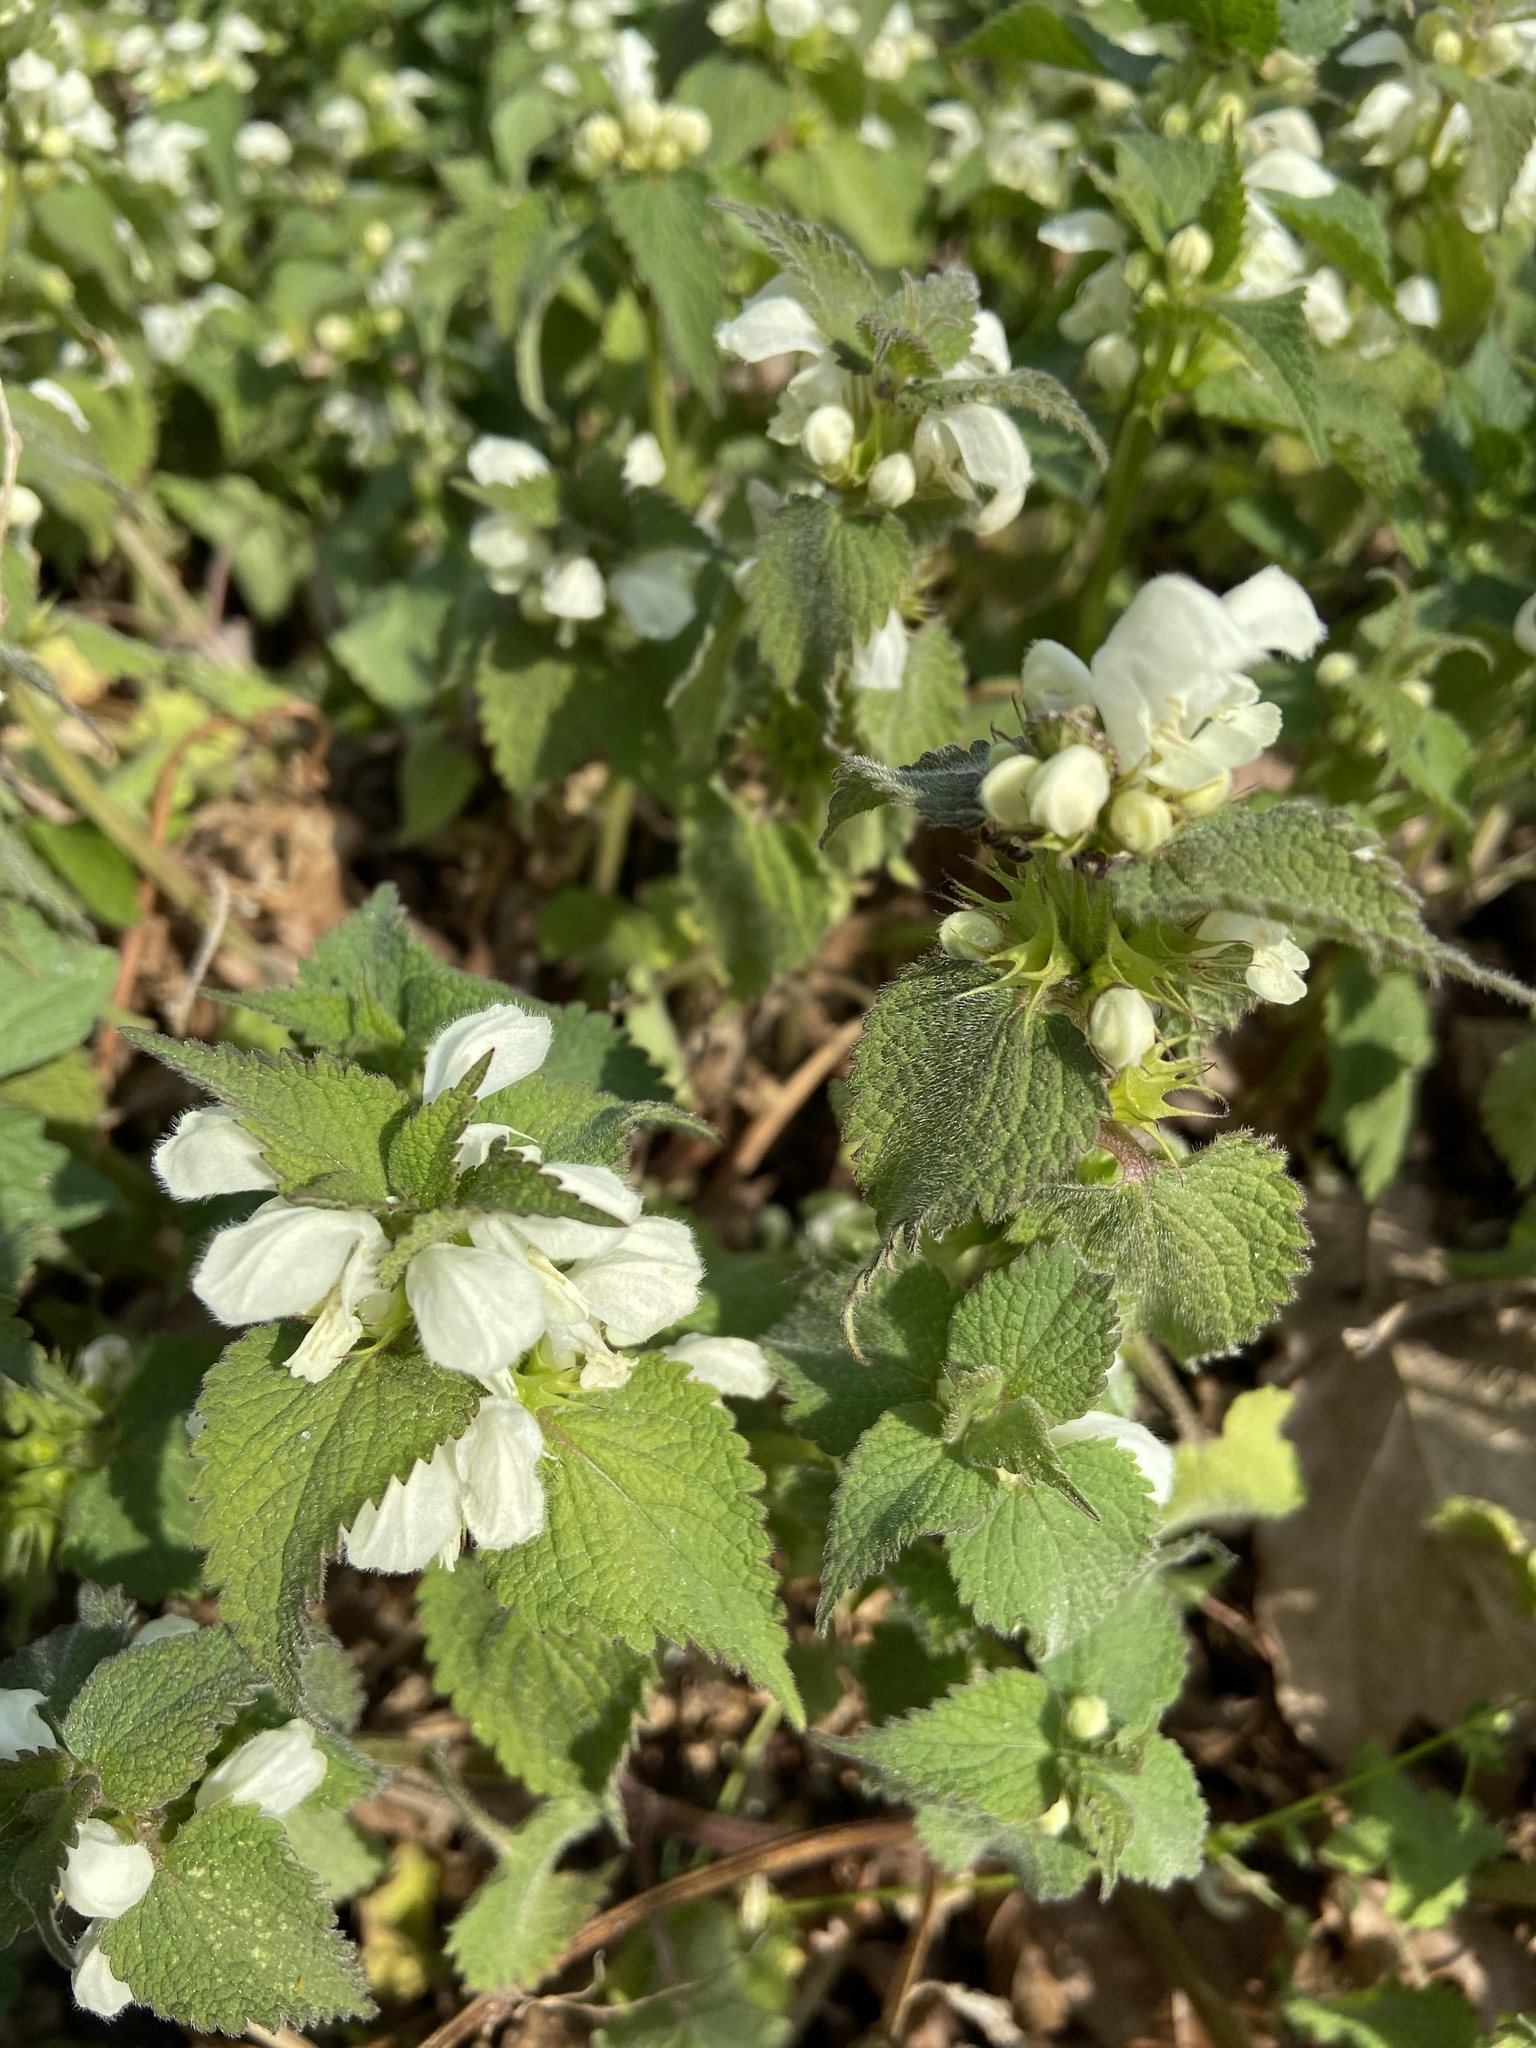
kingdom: Plantae
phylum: Tracheophyta
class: Magnoliopsida
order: Lamiales
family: Lamiaceae
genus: Lamium
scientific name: Lamium album
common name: White dead-nettle
